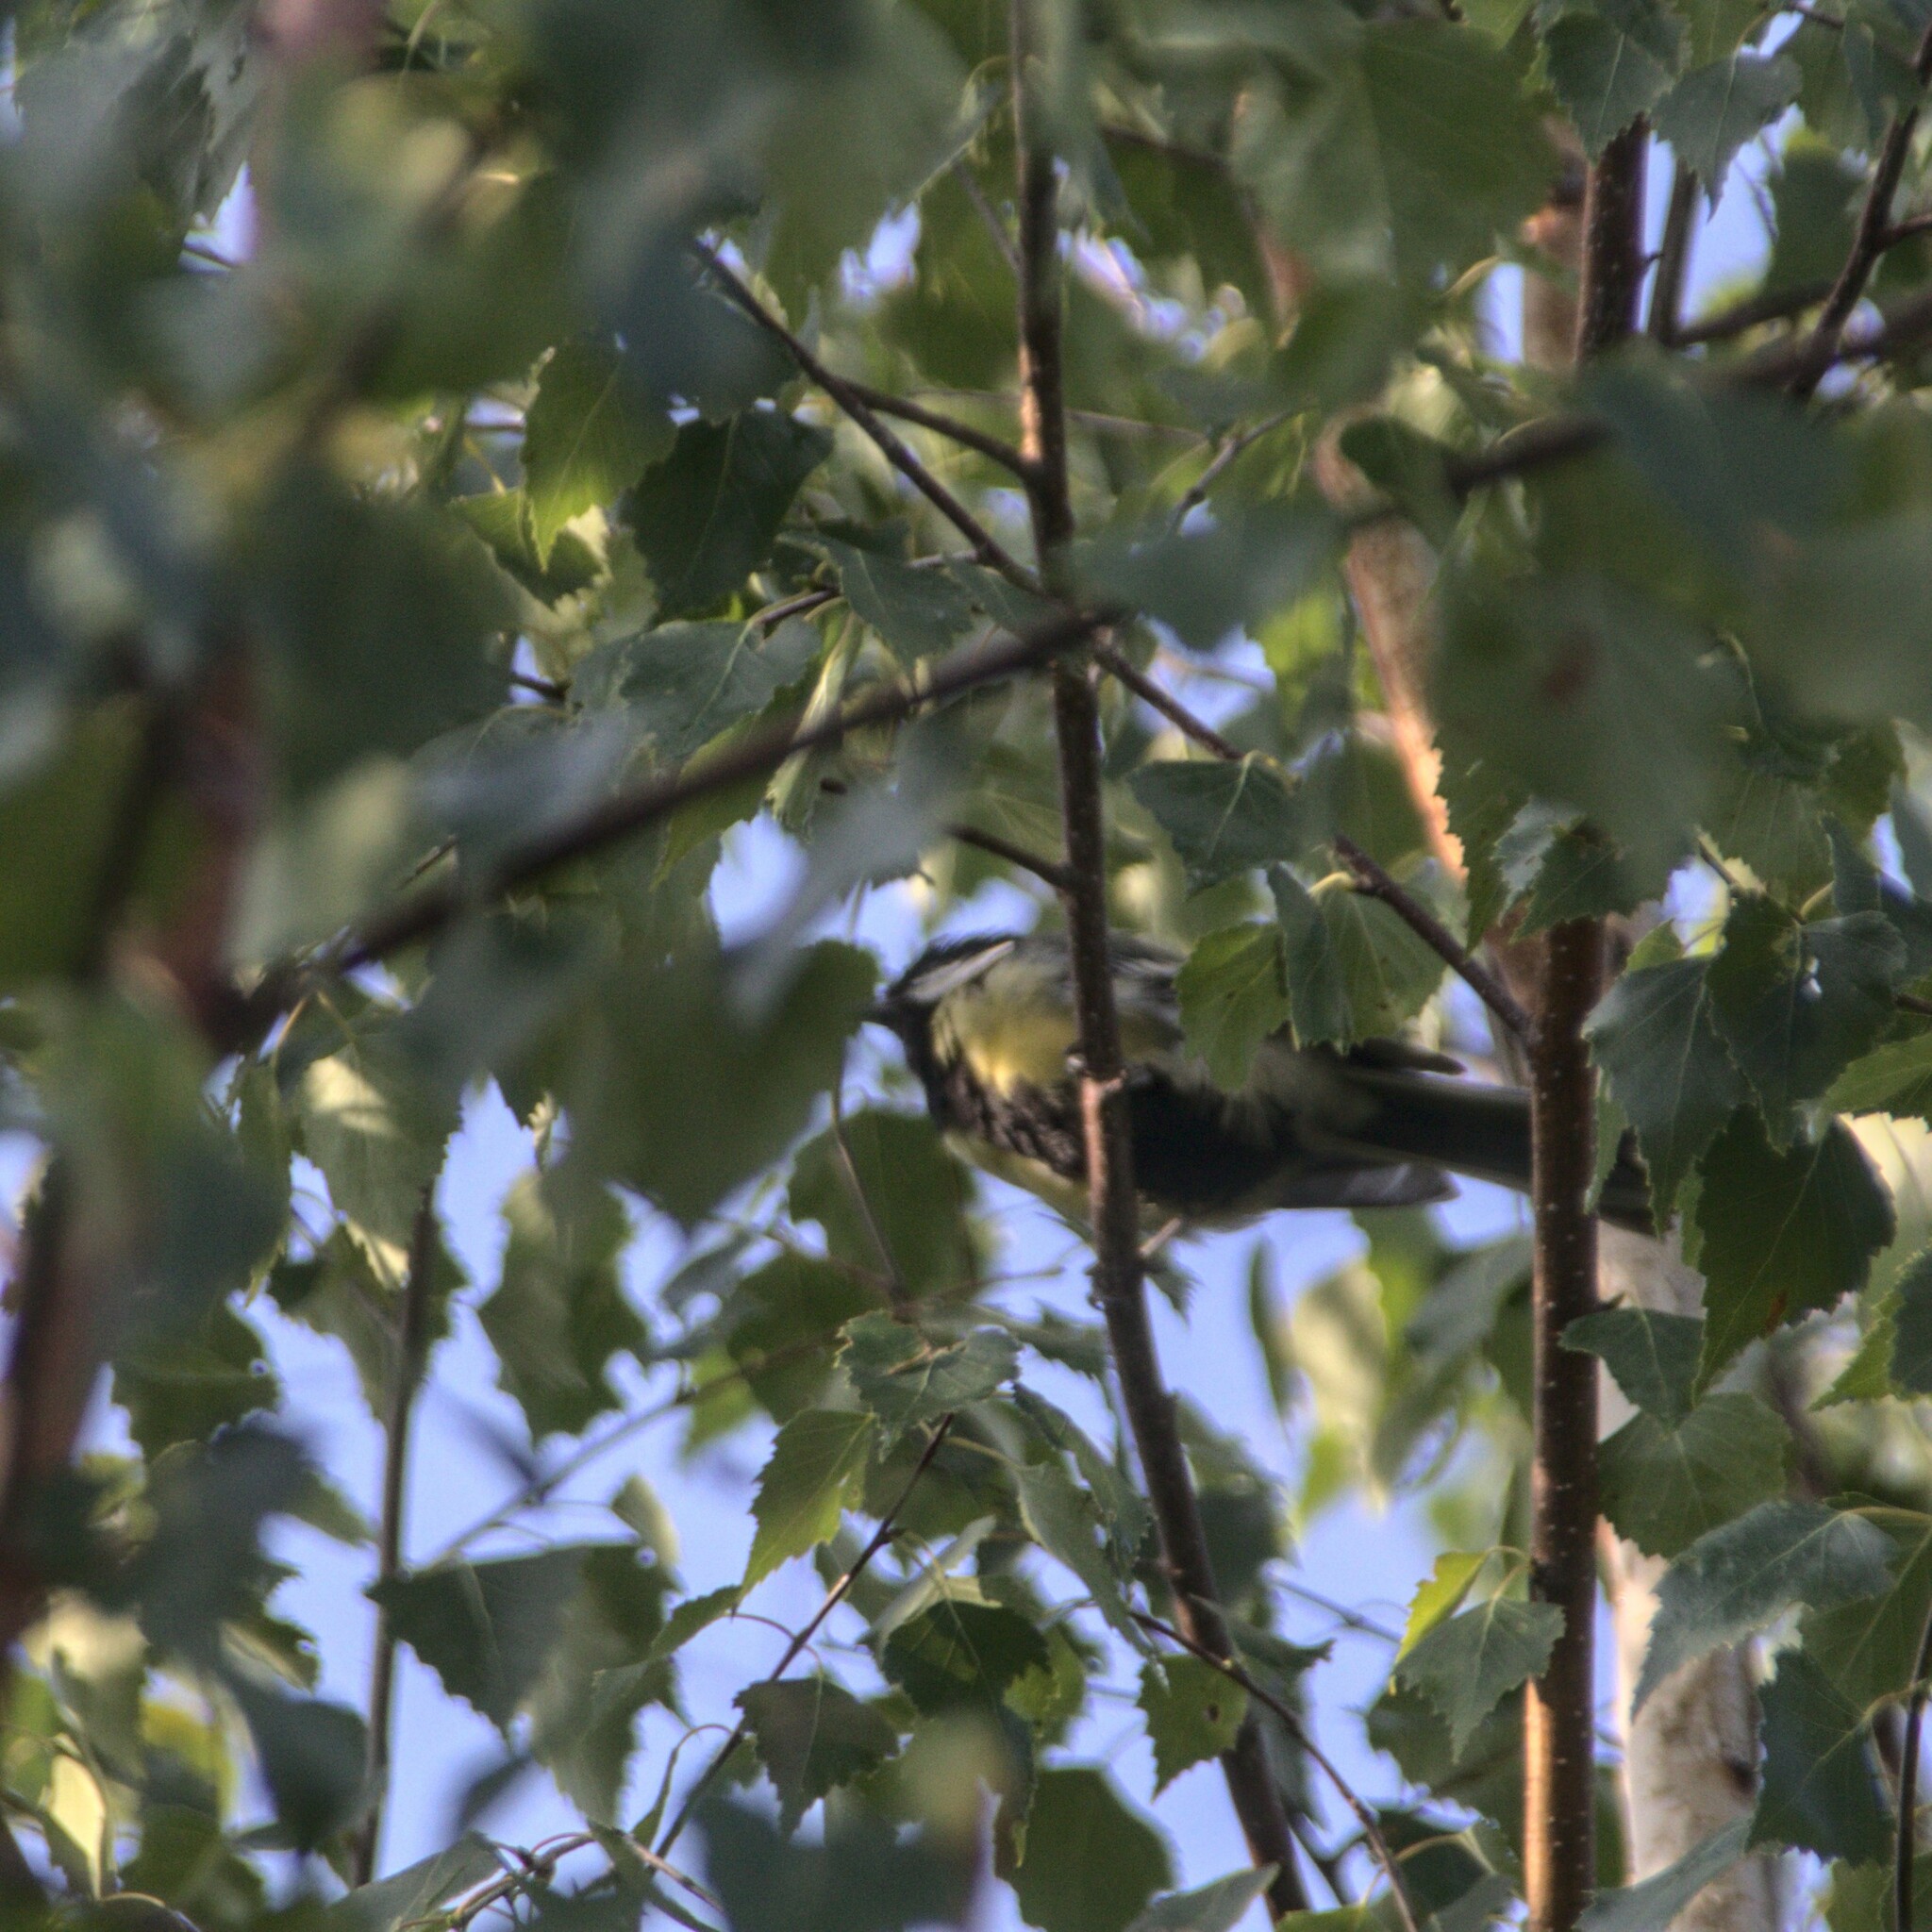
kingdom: Animalia
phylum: Chordata
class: Aves
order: Passeriformes
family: Paridae
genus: Parus
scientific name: Parus major
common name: Great tit
